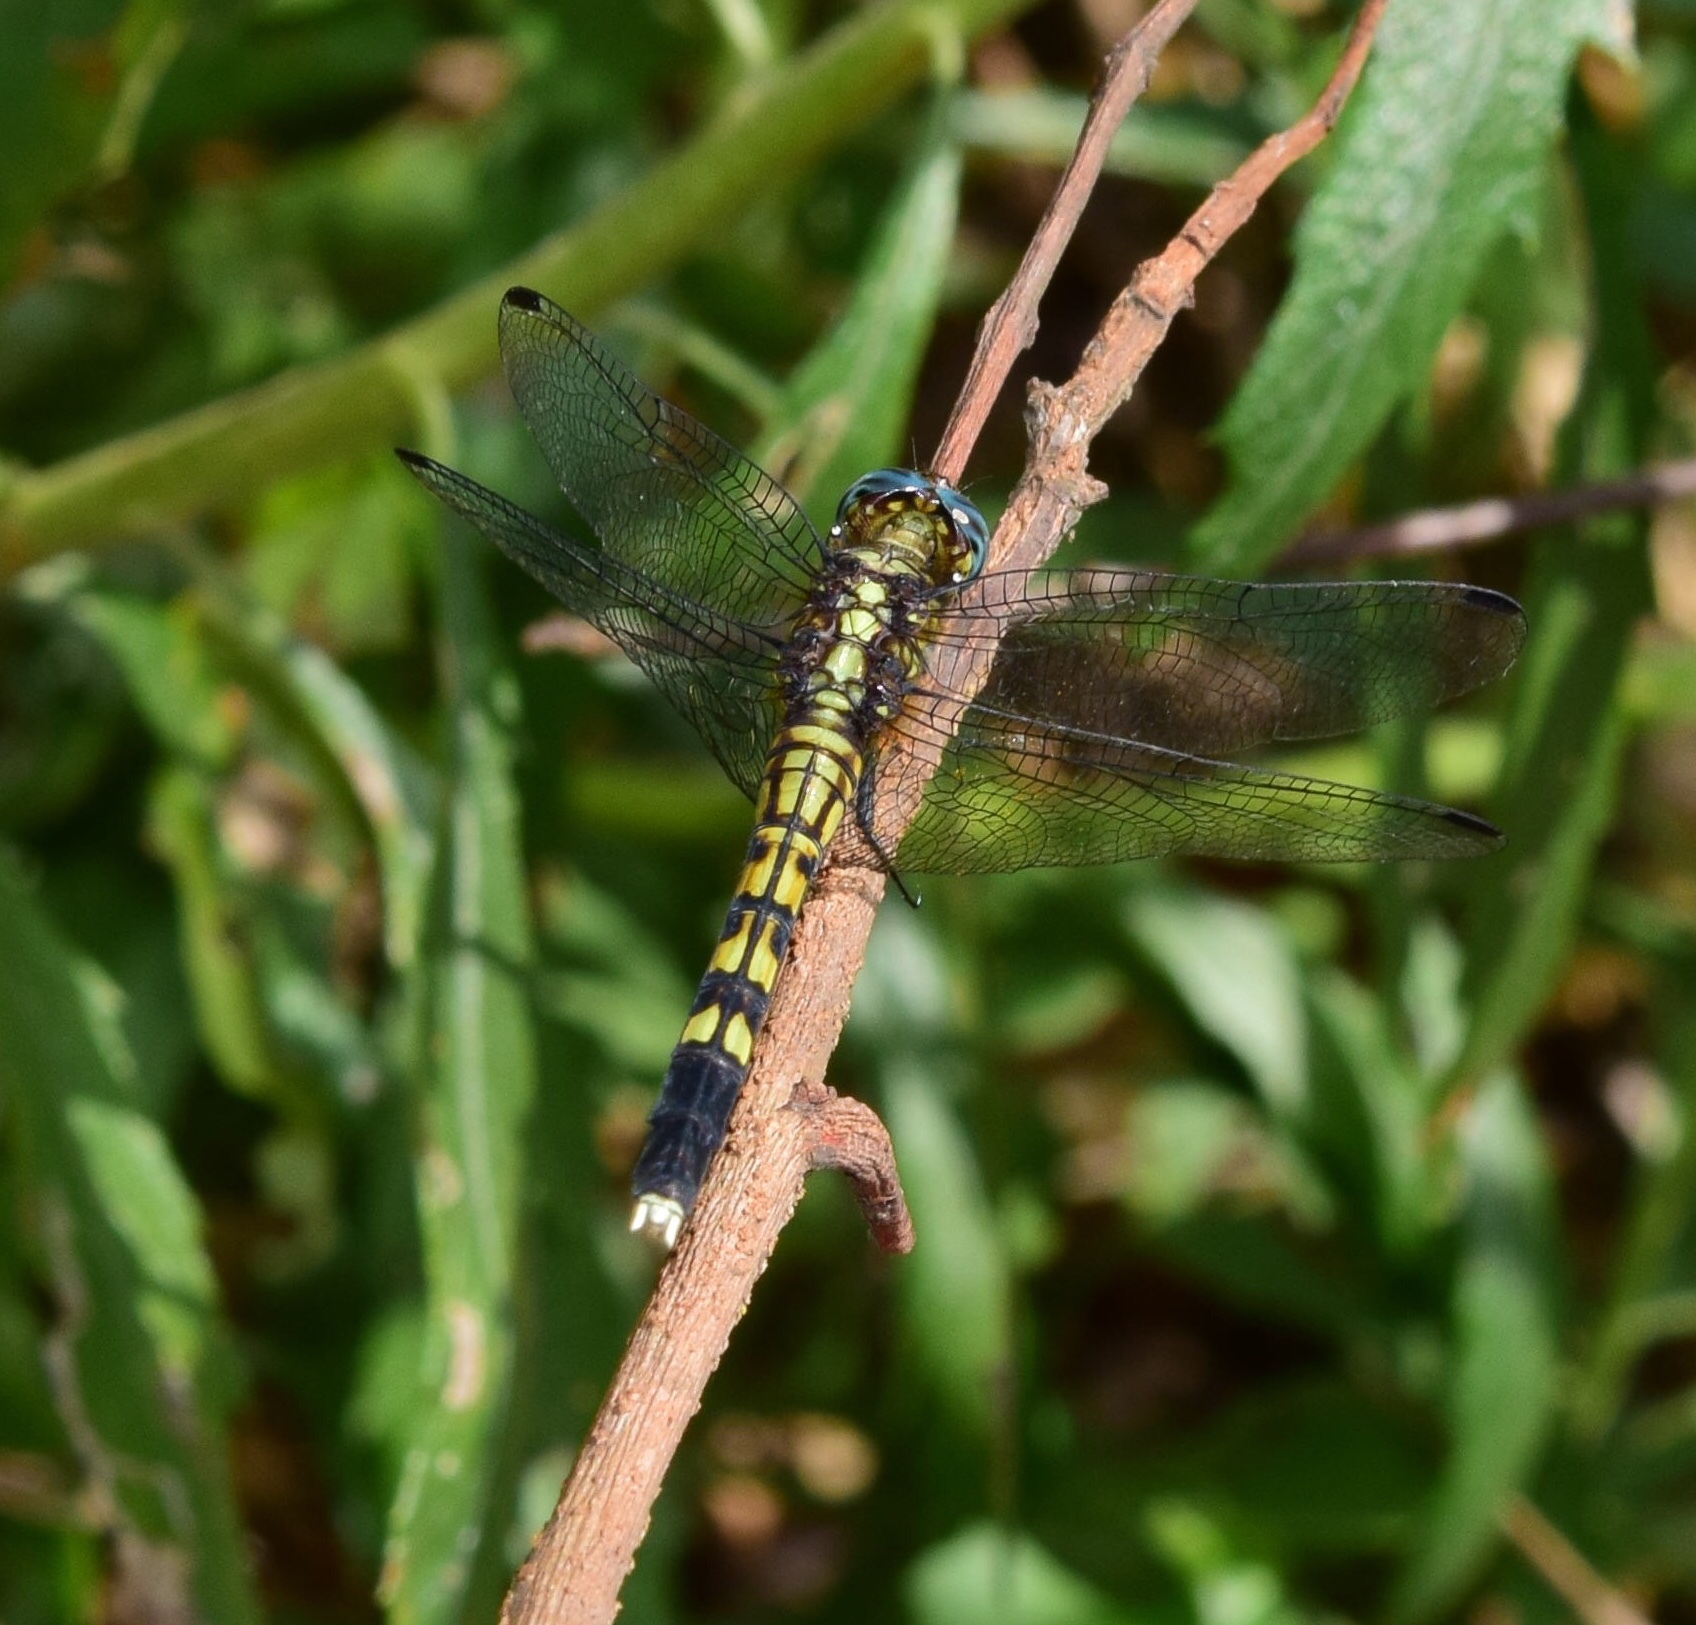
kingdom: Animalia
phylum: Arthropoda
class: Insecta
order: Odonata
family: Libellulidae
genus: Orthetrum
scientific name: Orthetrum julia
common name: Julia skimmer
